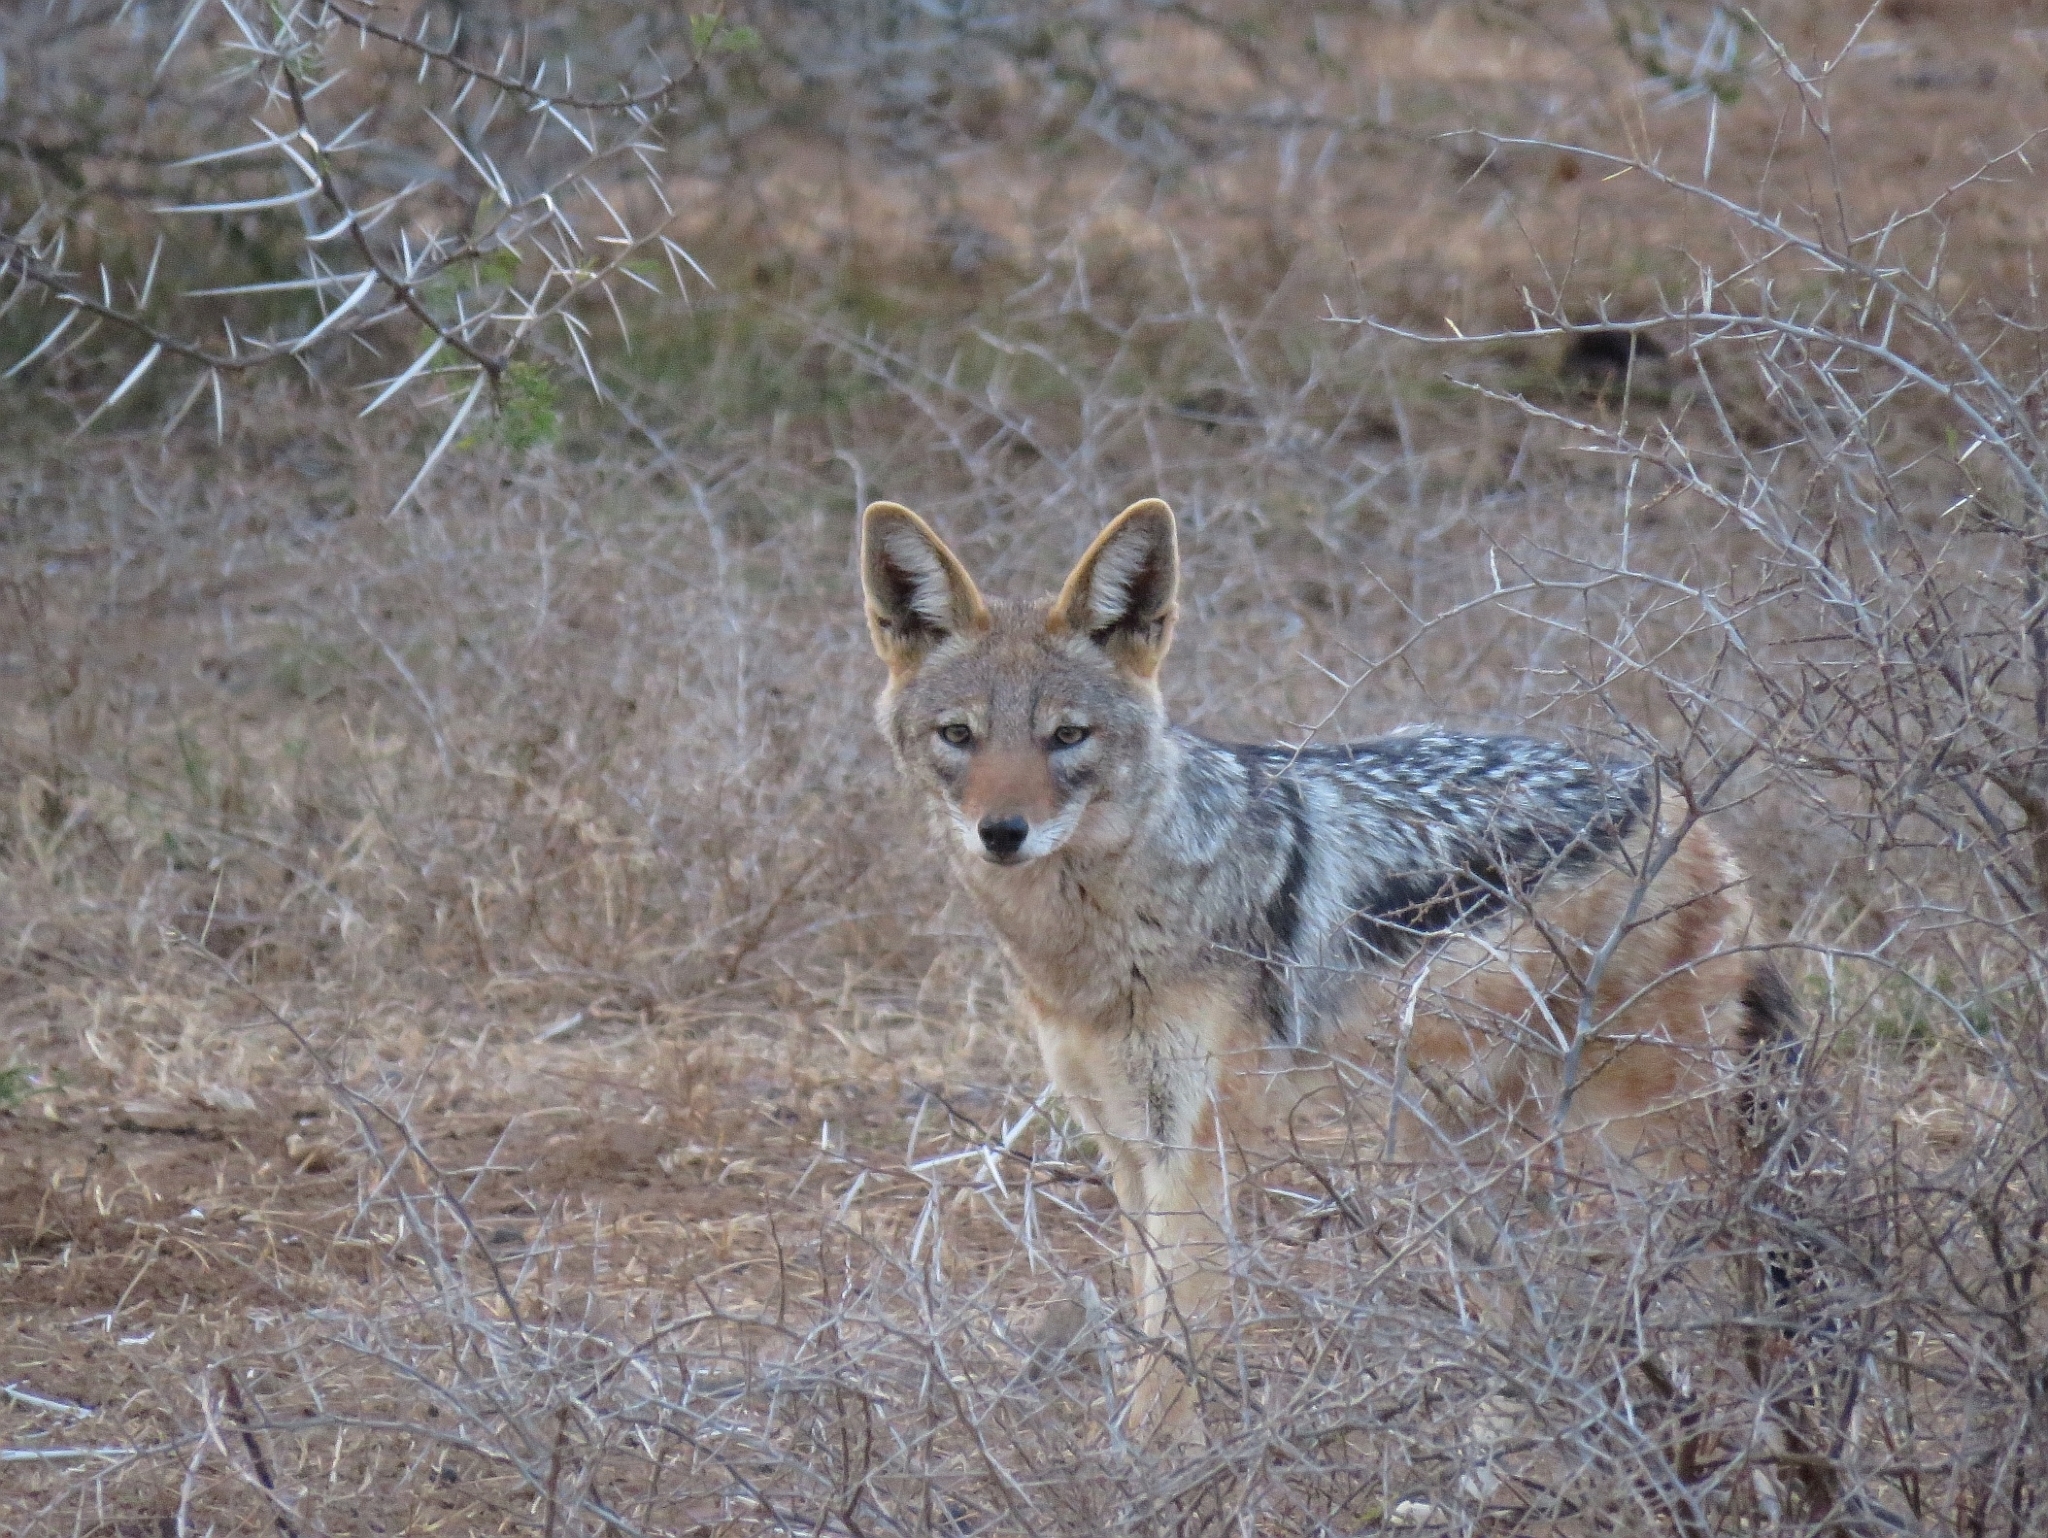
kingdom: Animalia
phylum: Chordata
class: Mammalia
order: Carnivora
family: Canidae
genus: Lupulella
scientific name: Lupulella
